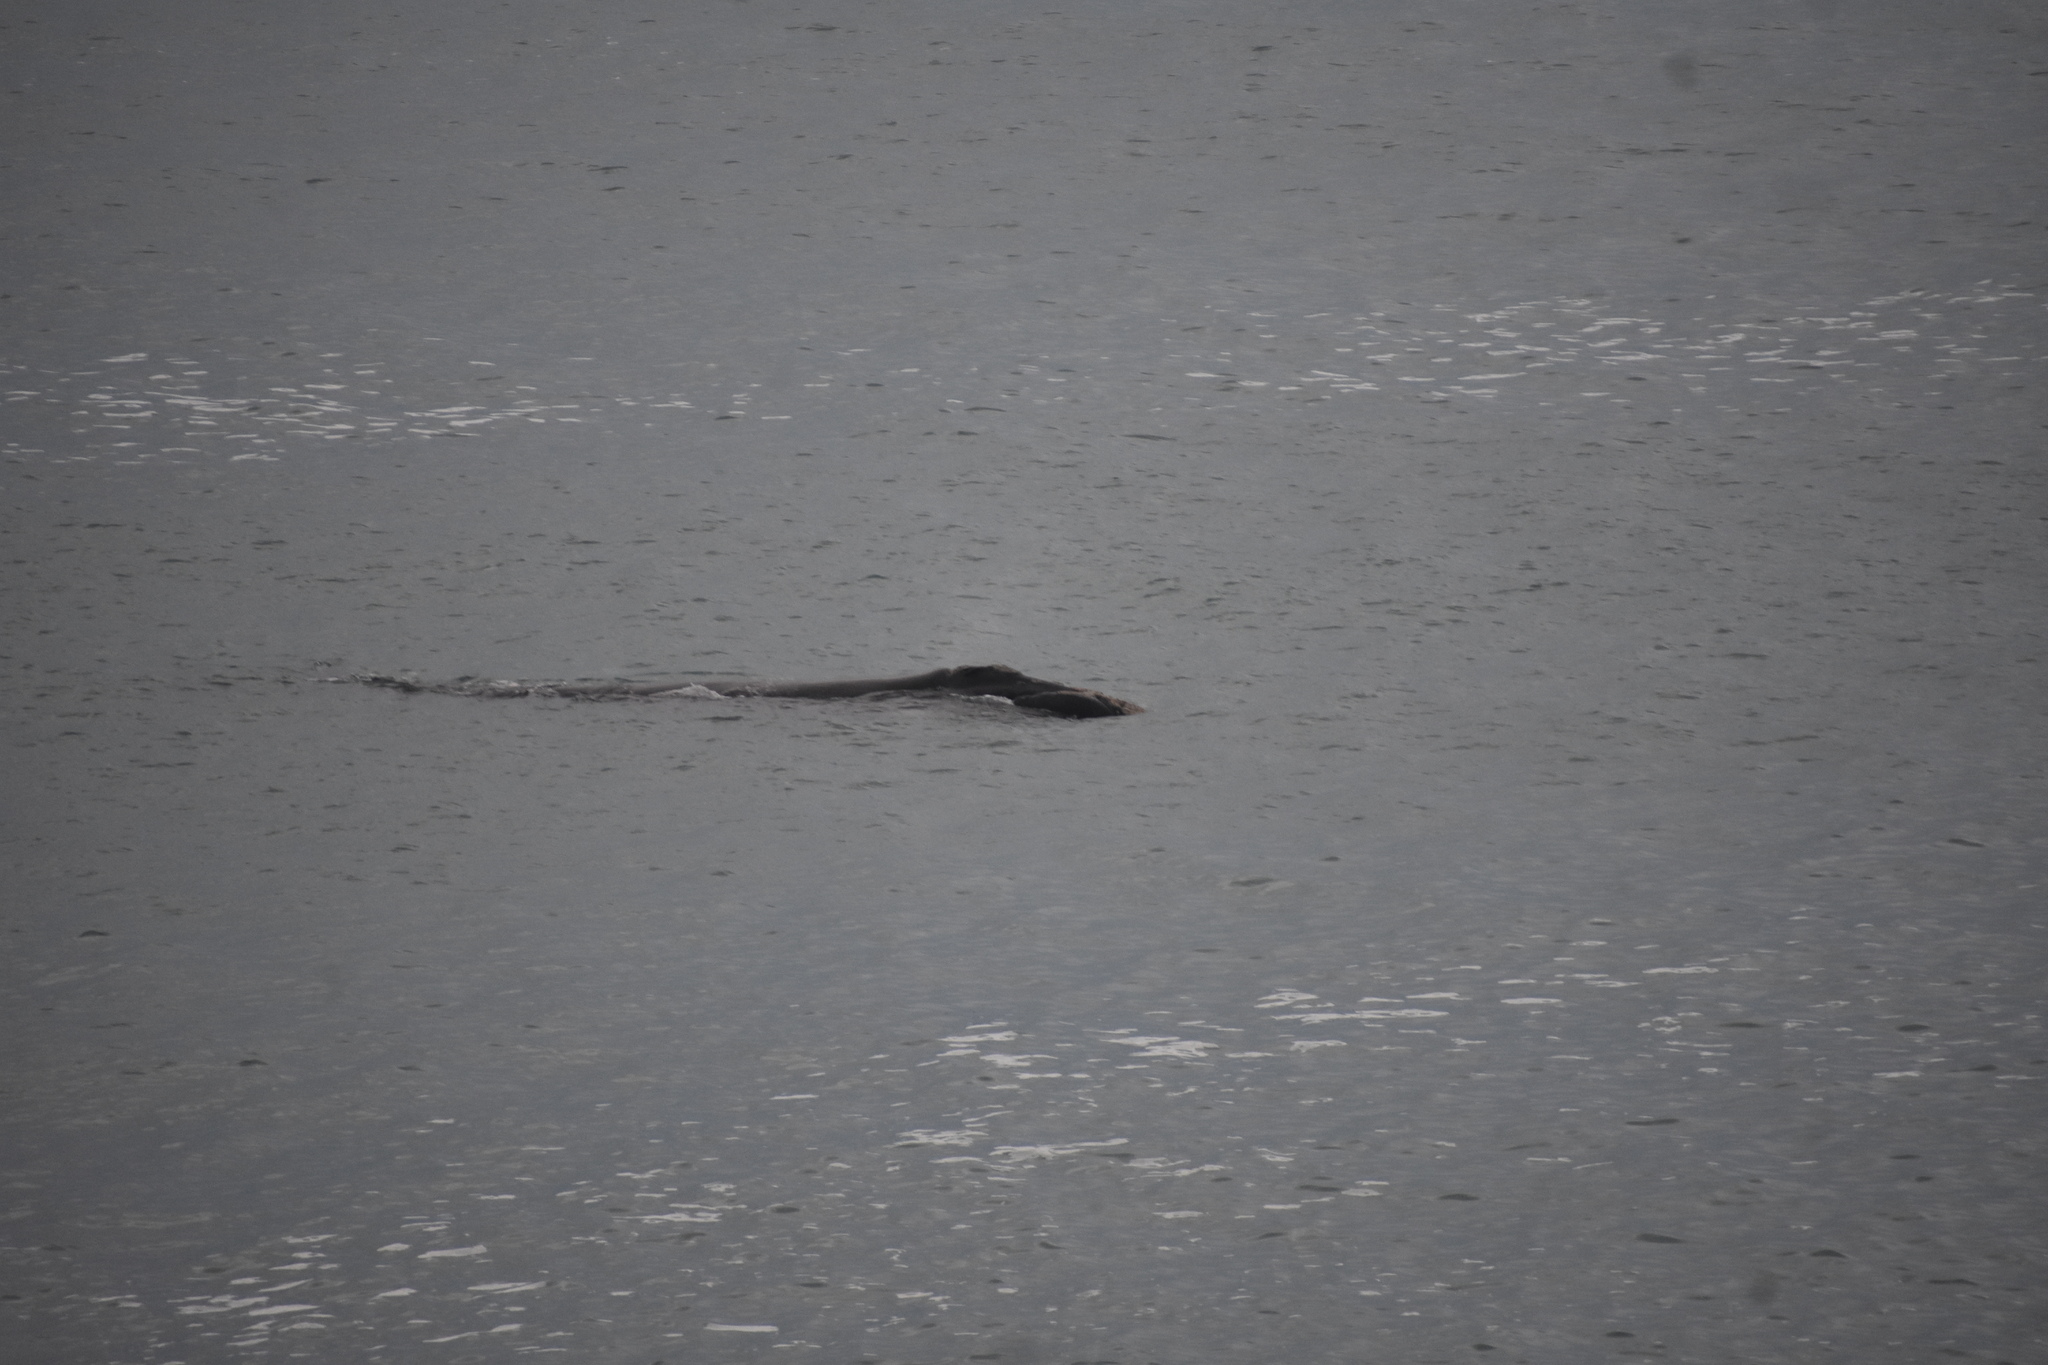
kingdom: Animalia
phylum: Chordata
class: Mammalia
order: Cetacea
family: Balaenidae
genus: Eubalaena
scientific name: Eubalaena australis
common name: Southern right whale
